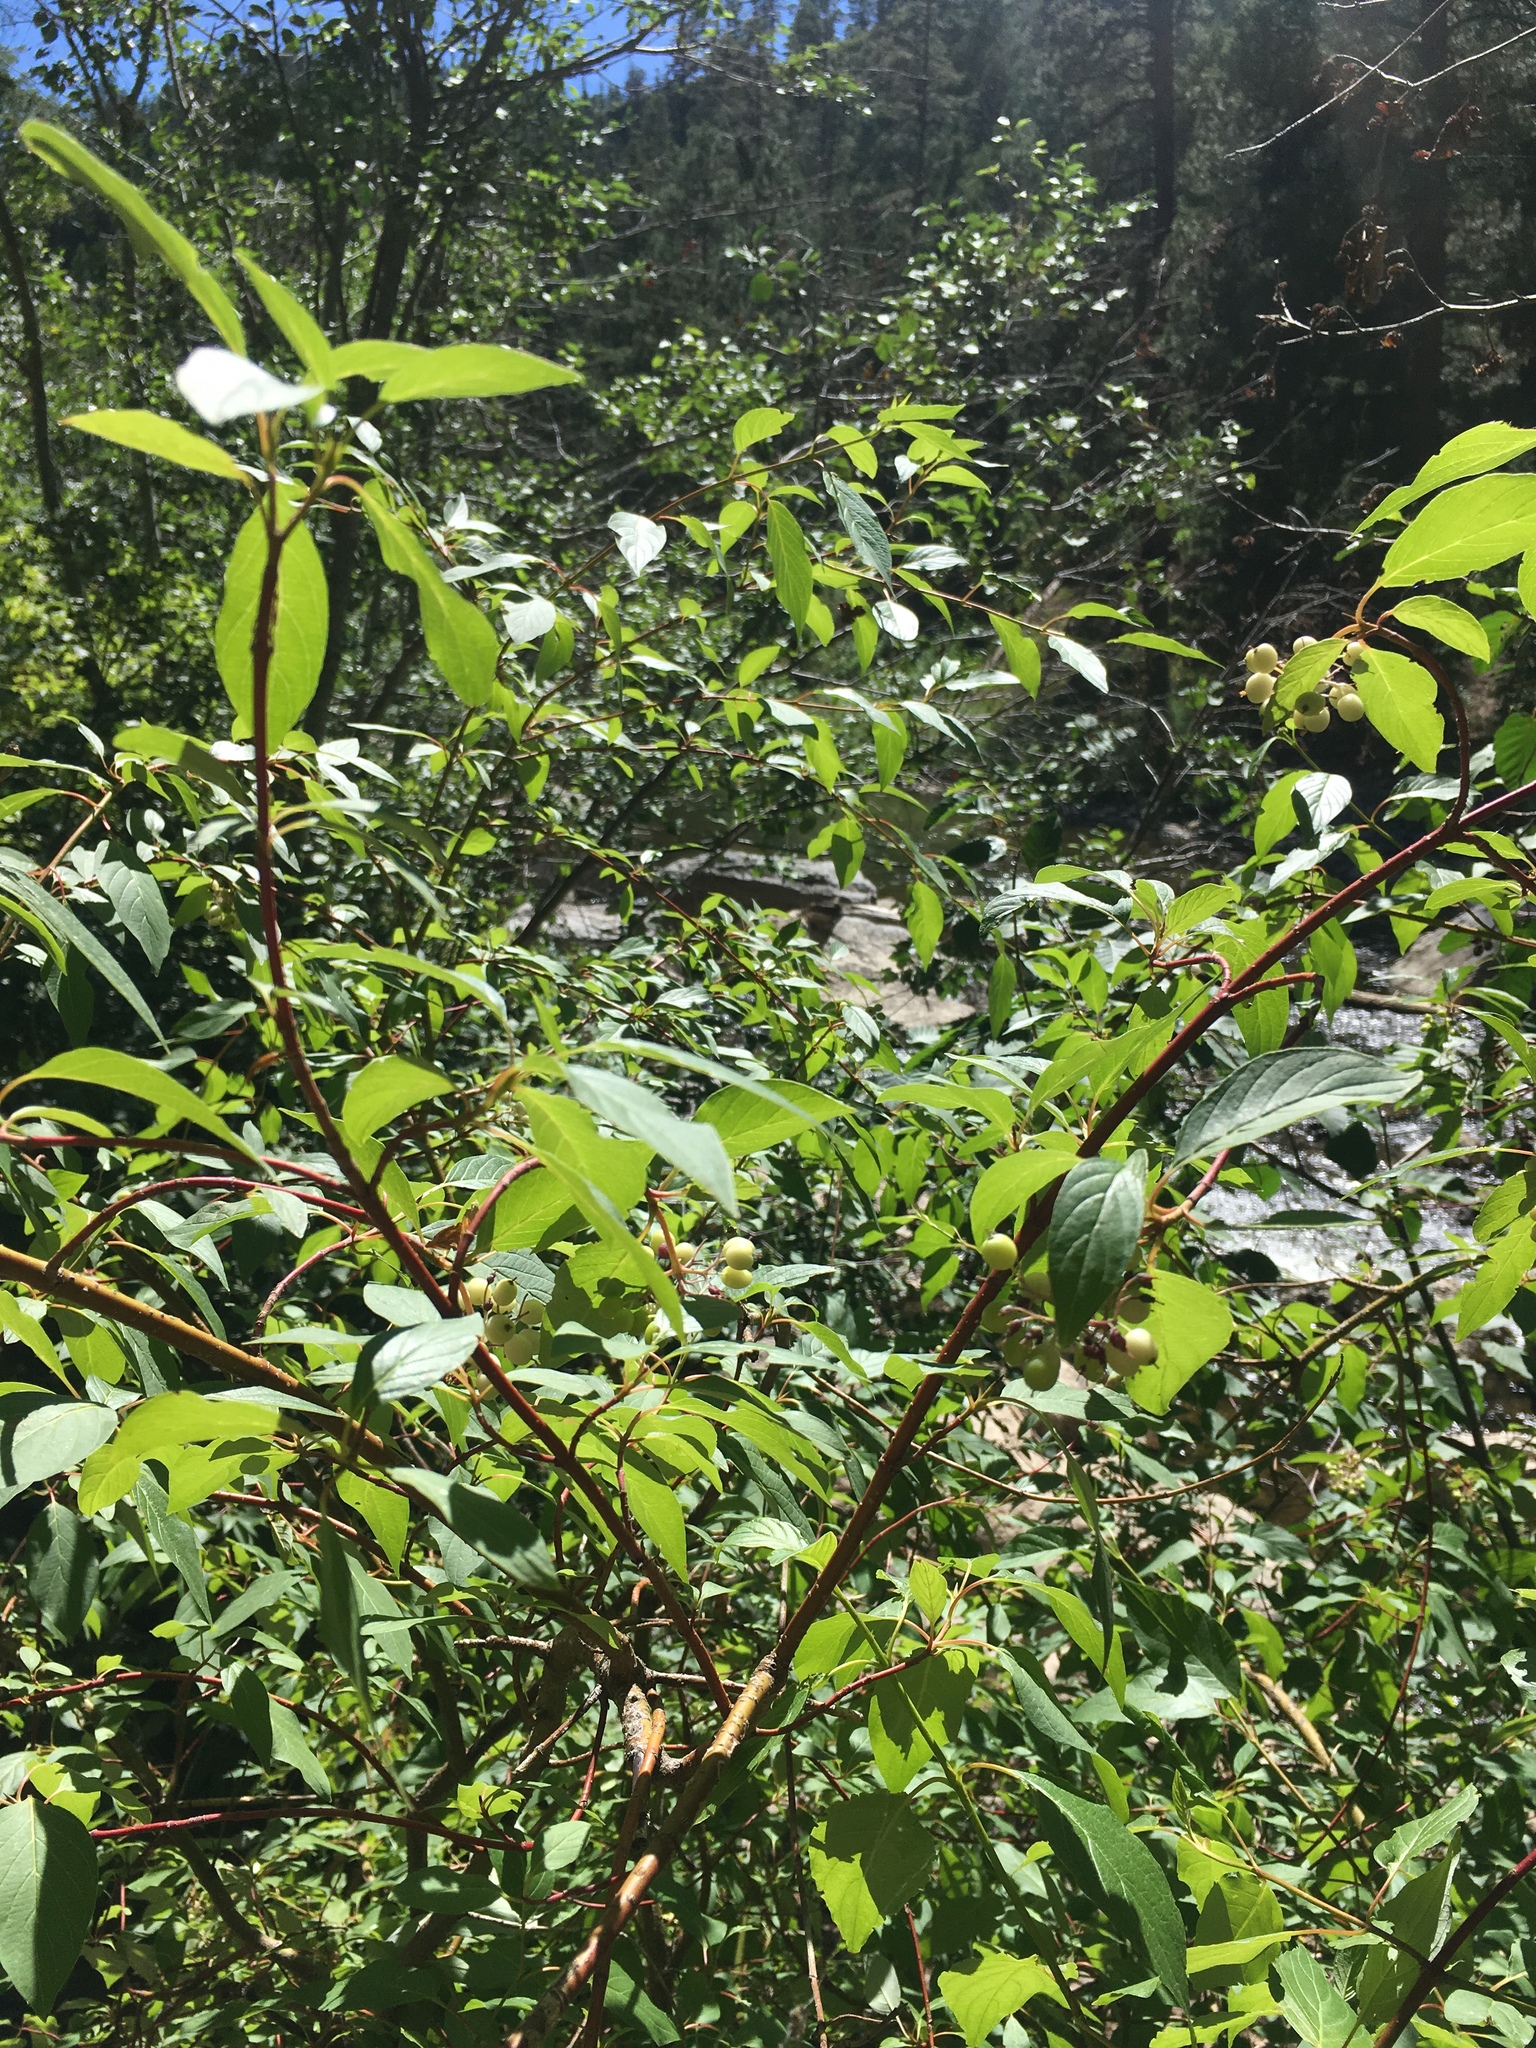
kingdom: Plantae
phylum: Tracheophyta
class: Magnoliopsida
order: Cornales
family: Cornaceae
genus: Cornus
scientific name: Cornus sericea
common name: Red-osier dogwood
